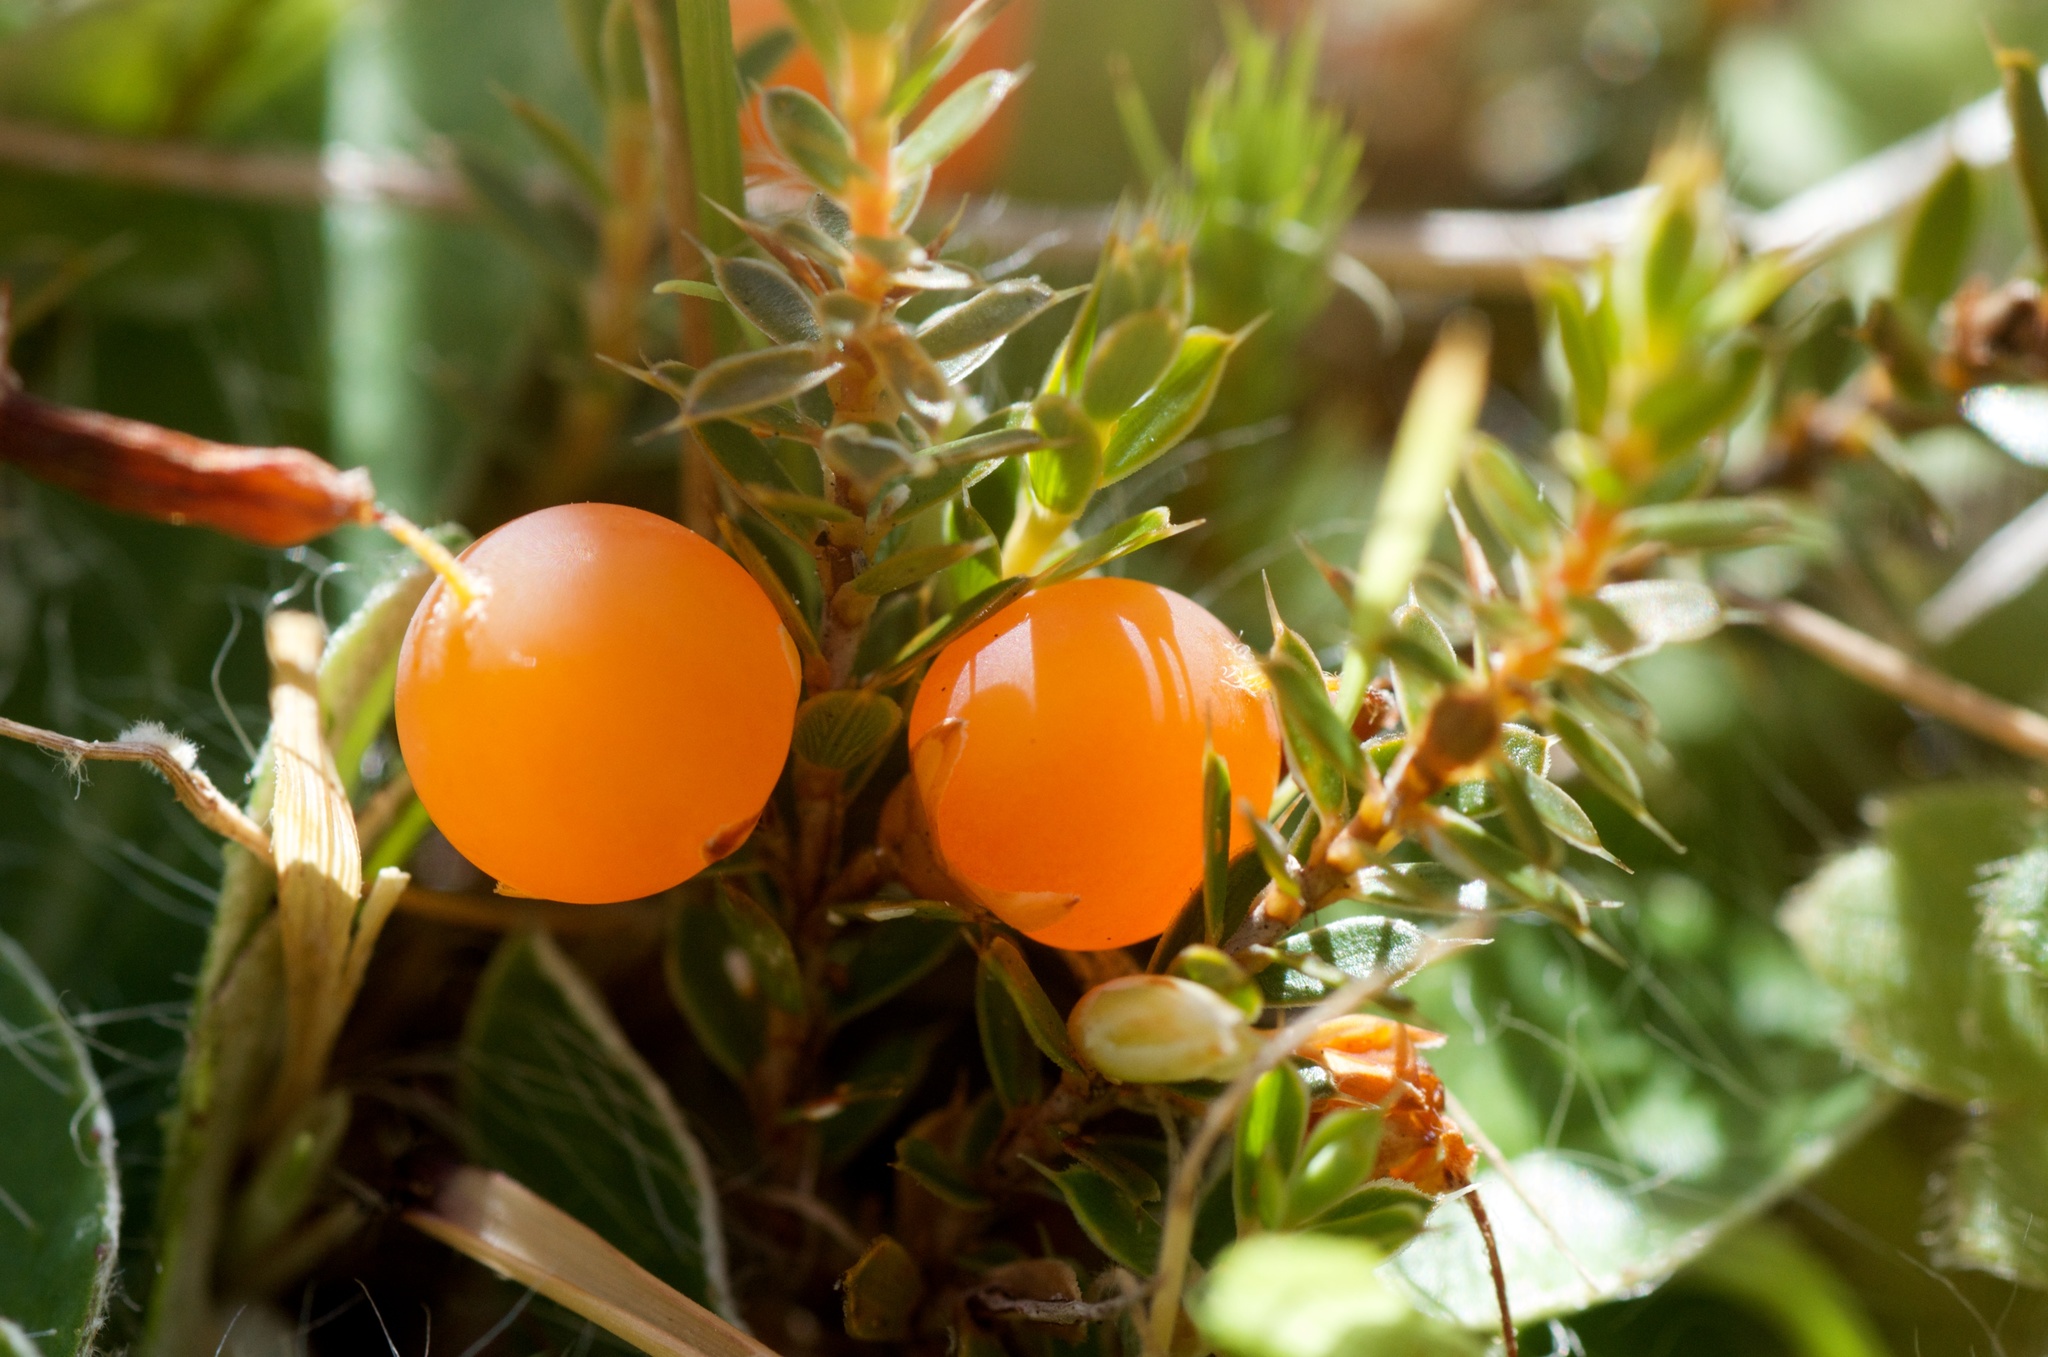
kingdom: Plantae
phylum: Tracheophyta
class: Magnoliopsida
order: Ericales
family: Ericaceae
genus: Styphelia
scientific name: Styphelia nesophila
